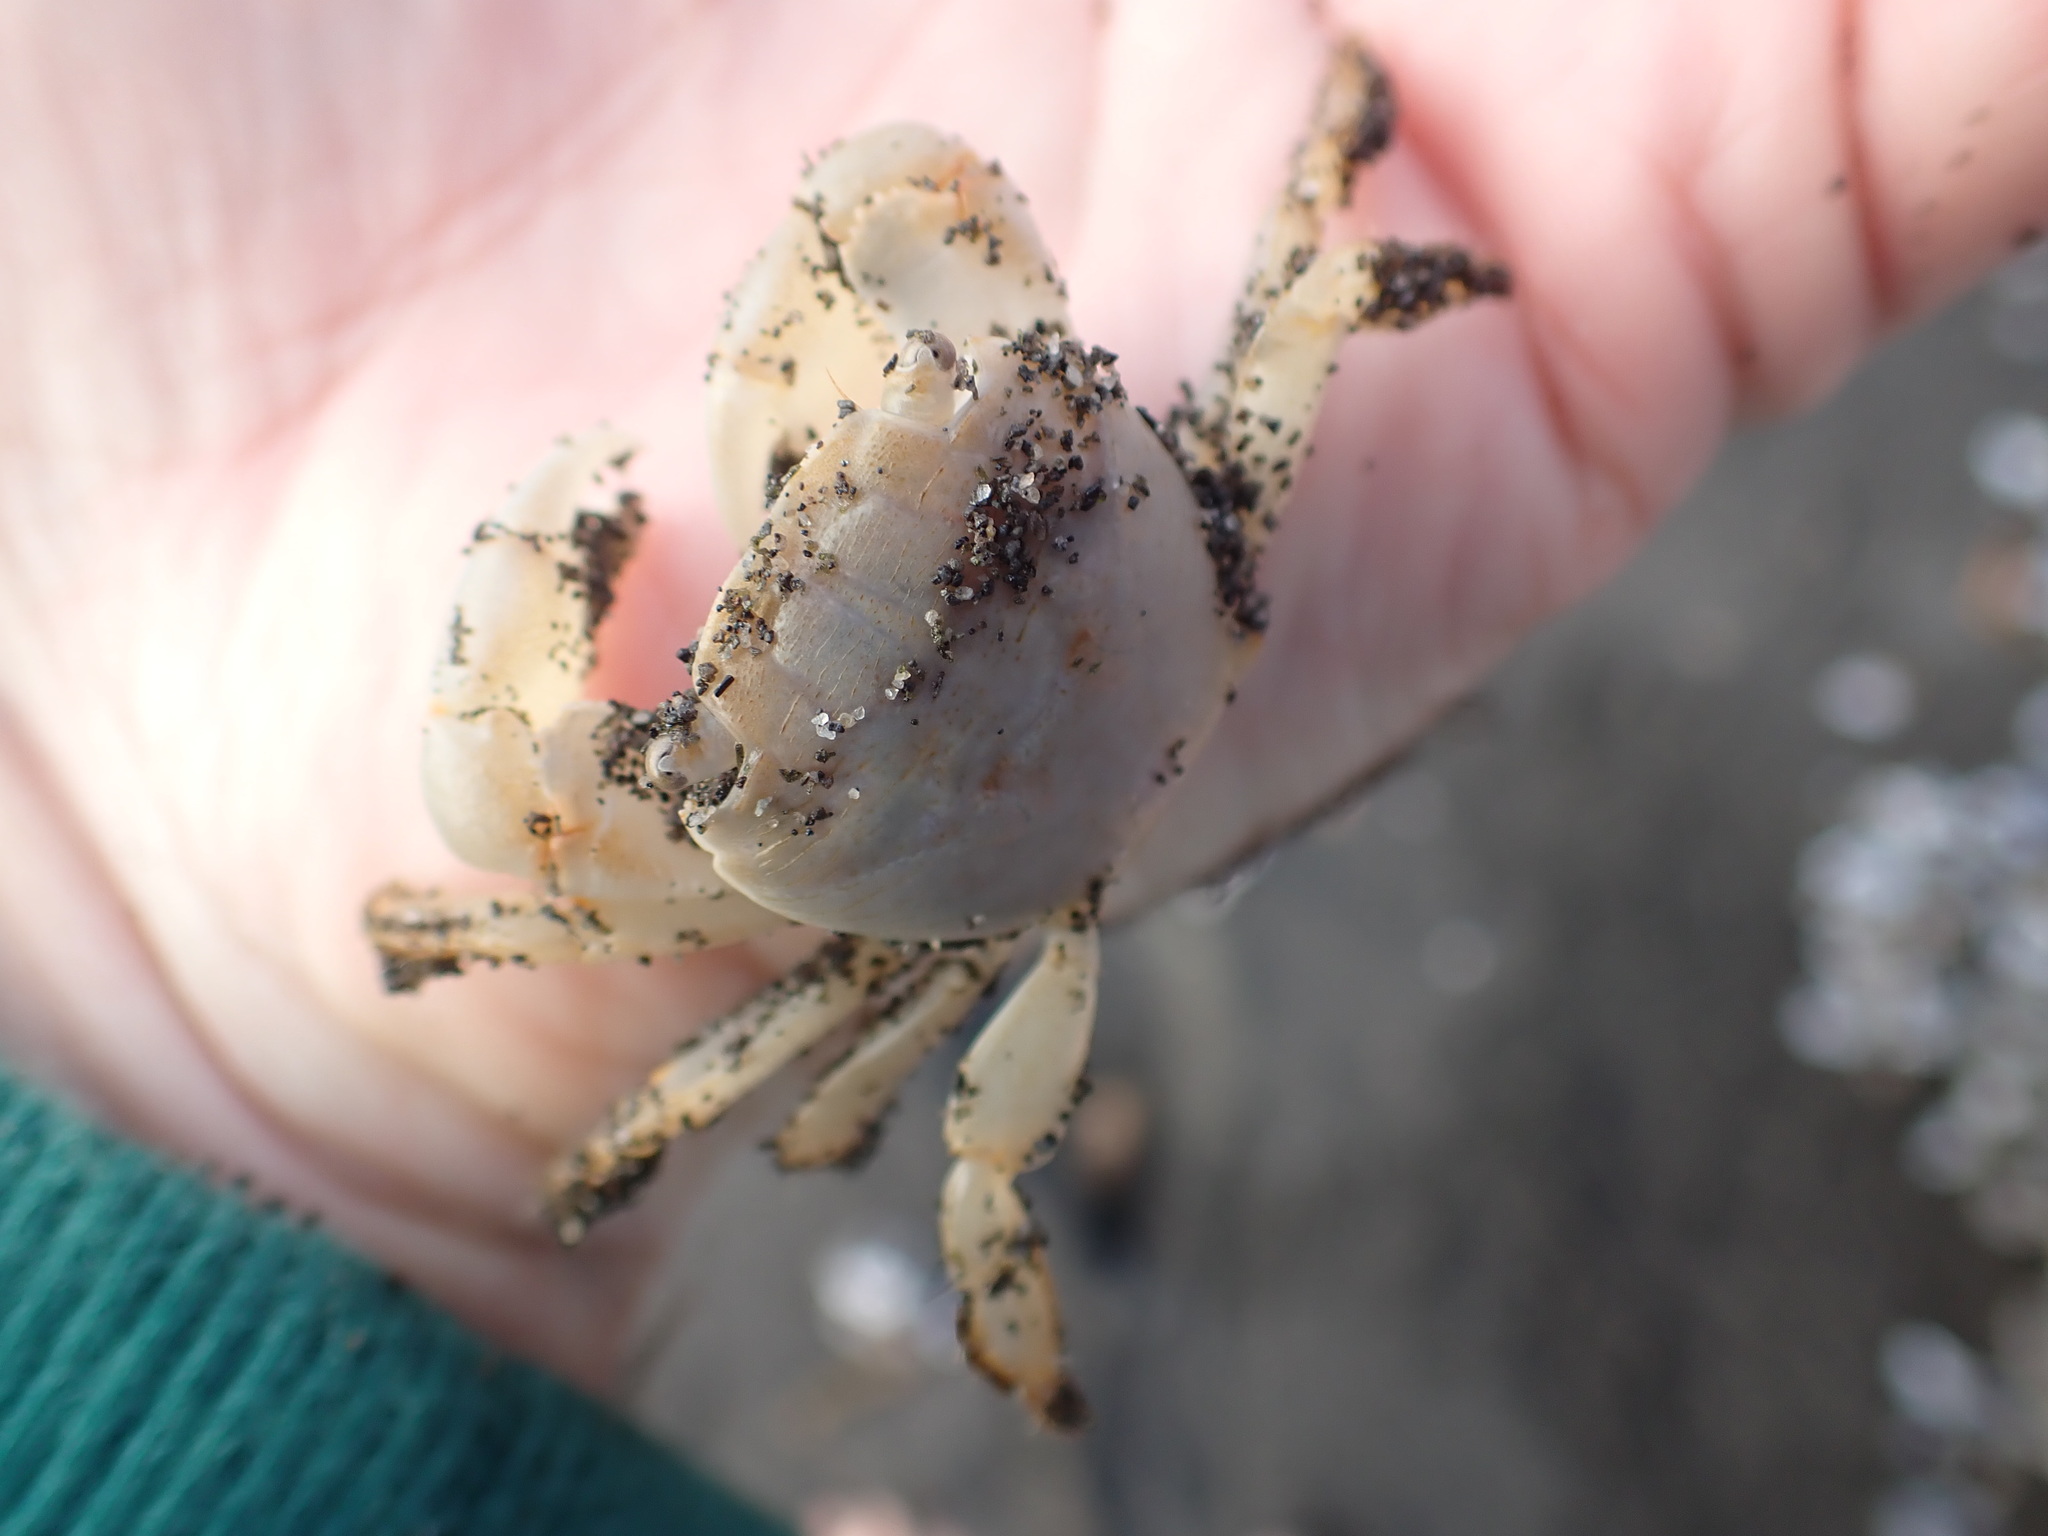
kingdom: Animalia
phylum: Arthropoda
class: Malacostraca
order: Decapoda
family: Grapsidae
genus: Planes
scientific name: Planes minutus
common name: Gulf weed crab
